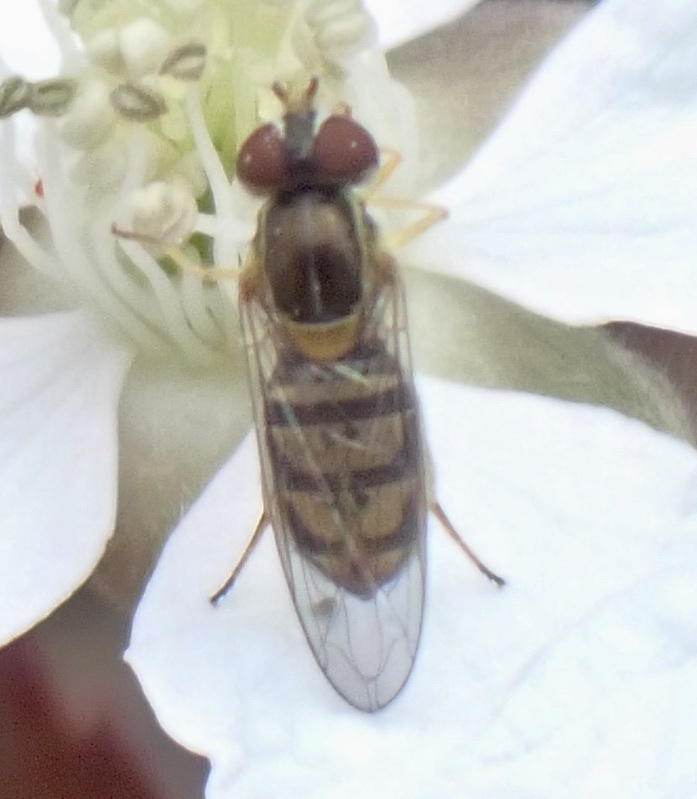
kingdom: Animalia
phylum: Arthropoda
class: Insecta
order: Diptera
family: Syrphidae
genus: Toxomerus
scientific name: Toxomerus marginatus
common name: Syrphid fly
